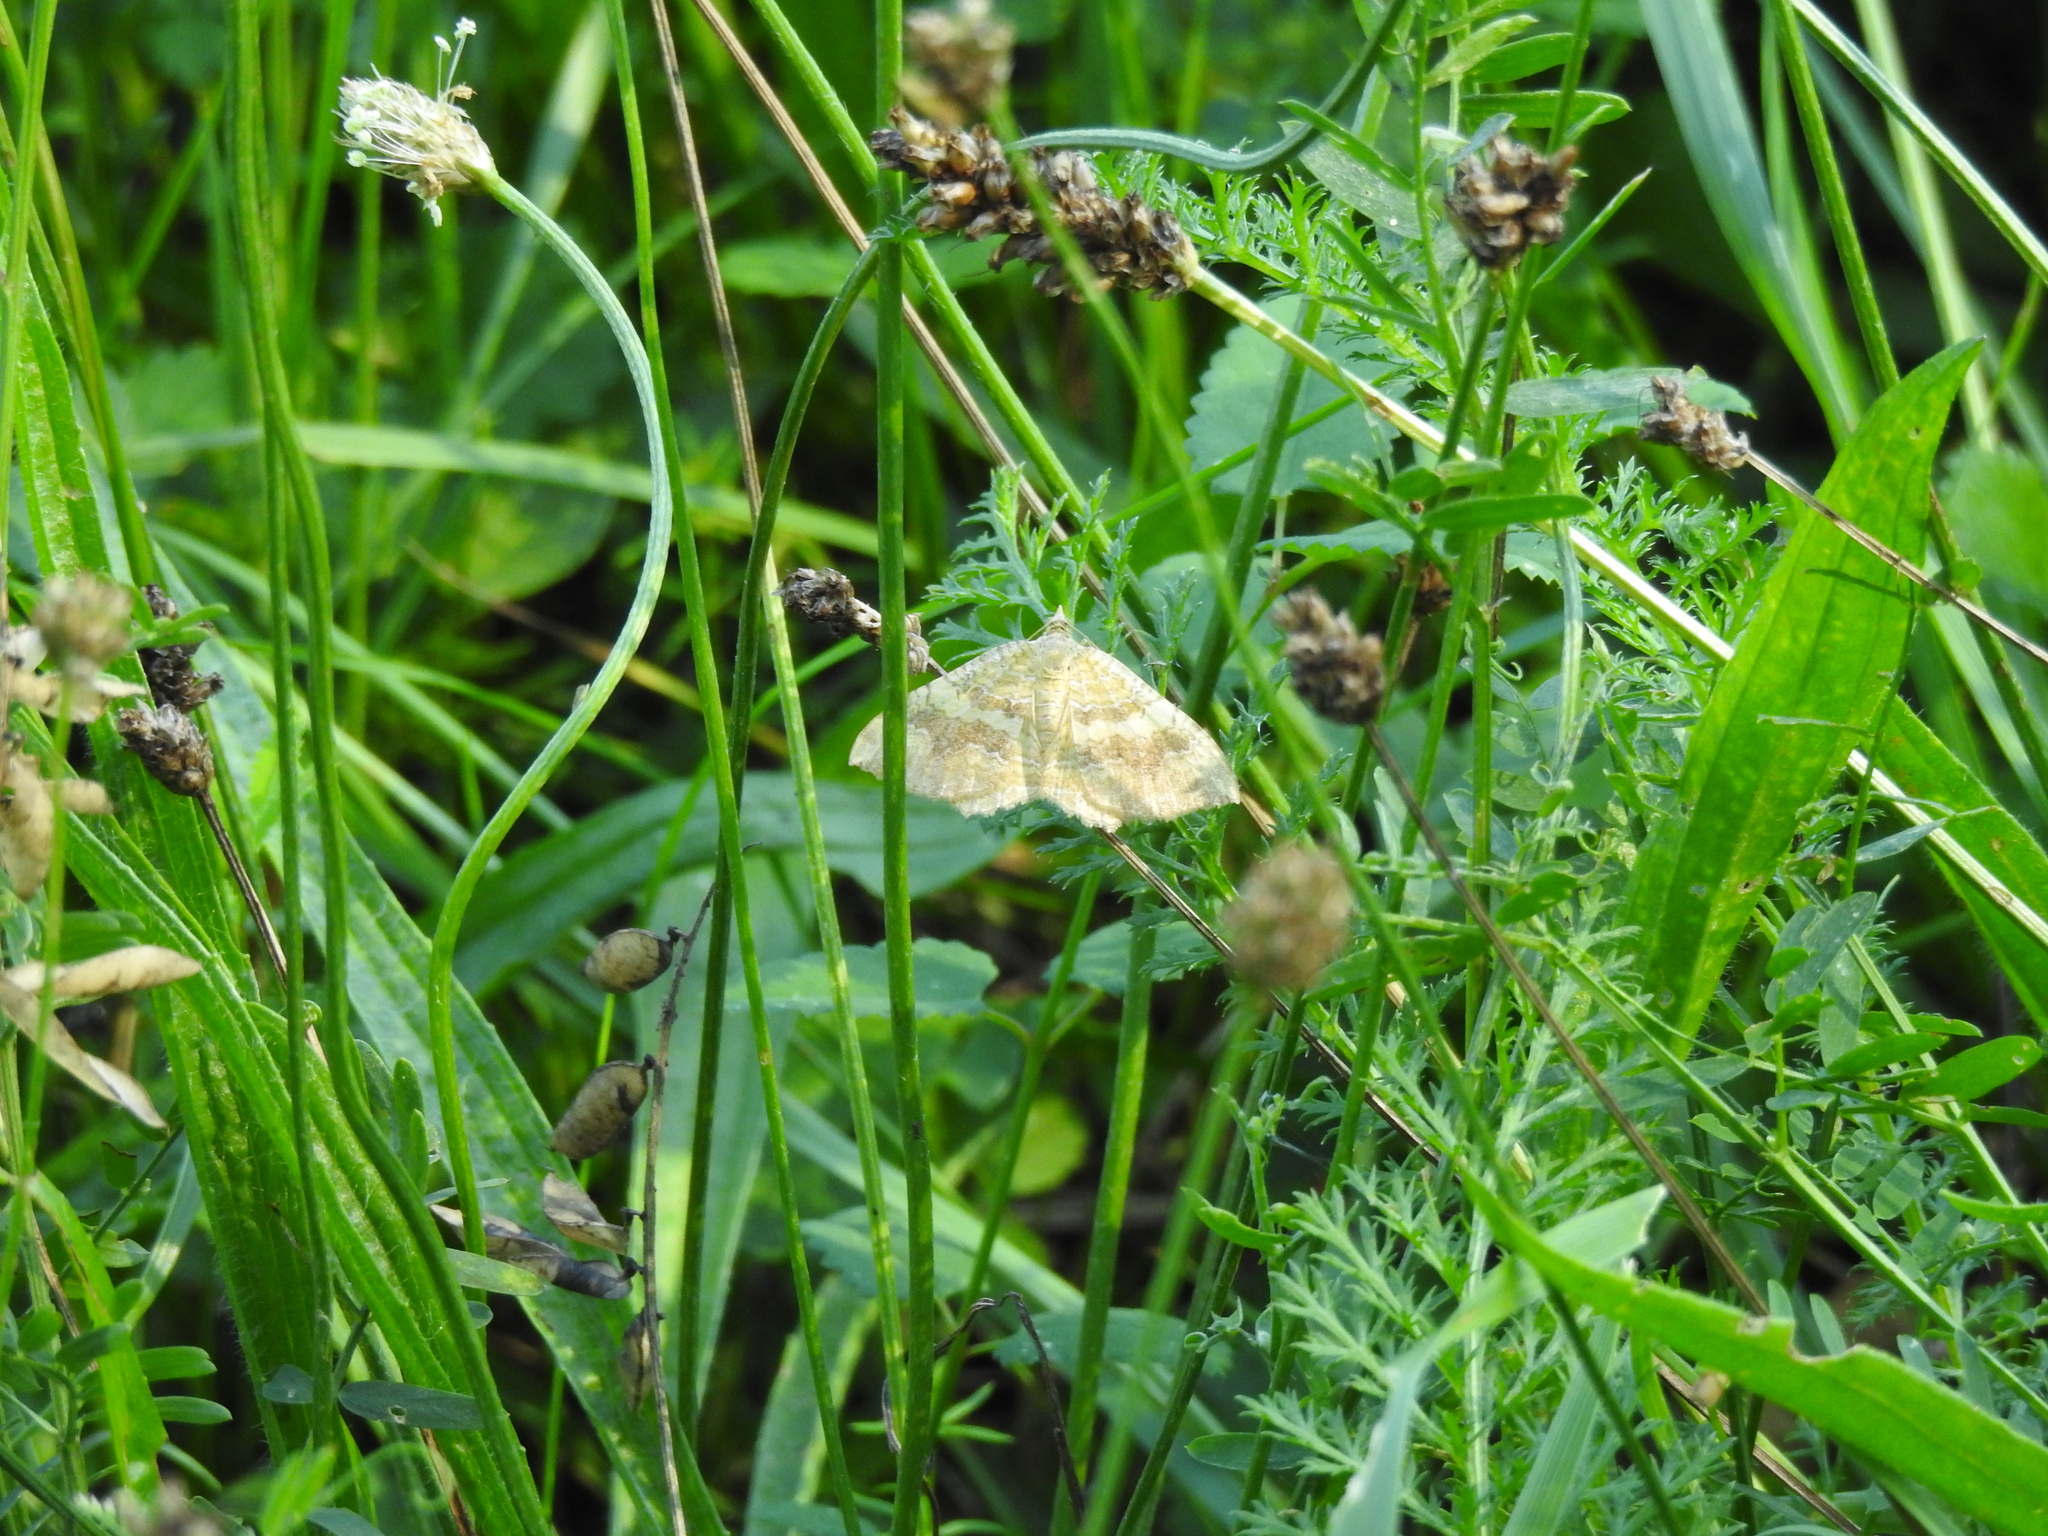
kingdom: Animalia
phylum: Arthropoda
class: Insecta
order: Lepidoptera
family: Geometridae
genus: Camptogramma
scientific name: Camptogramma bilineata
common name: Yellow shell
